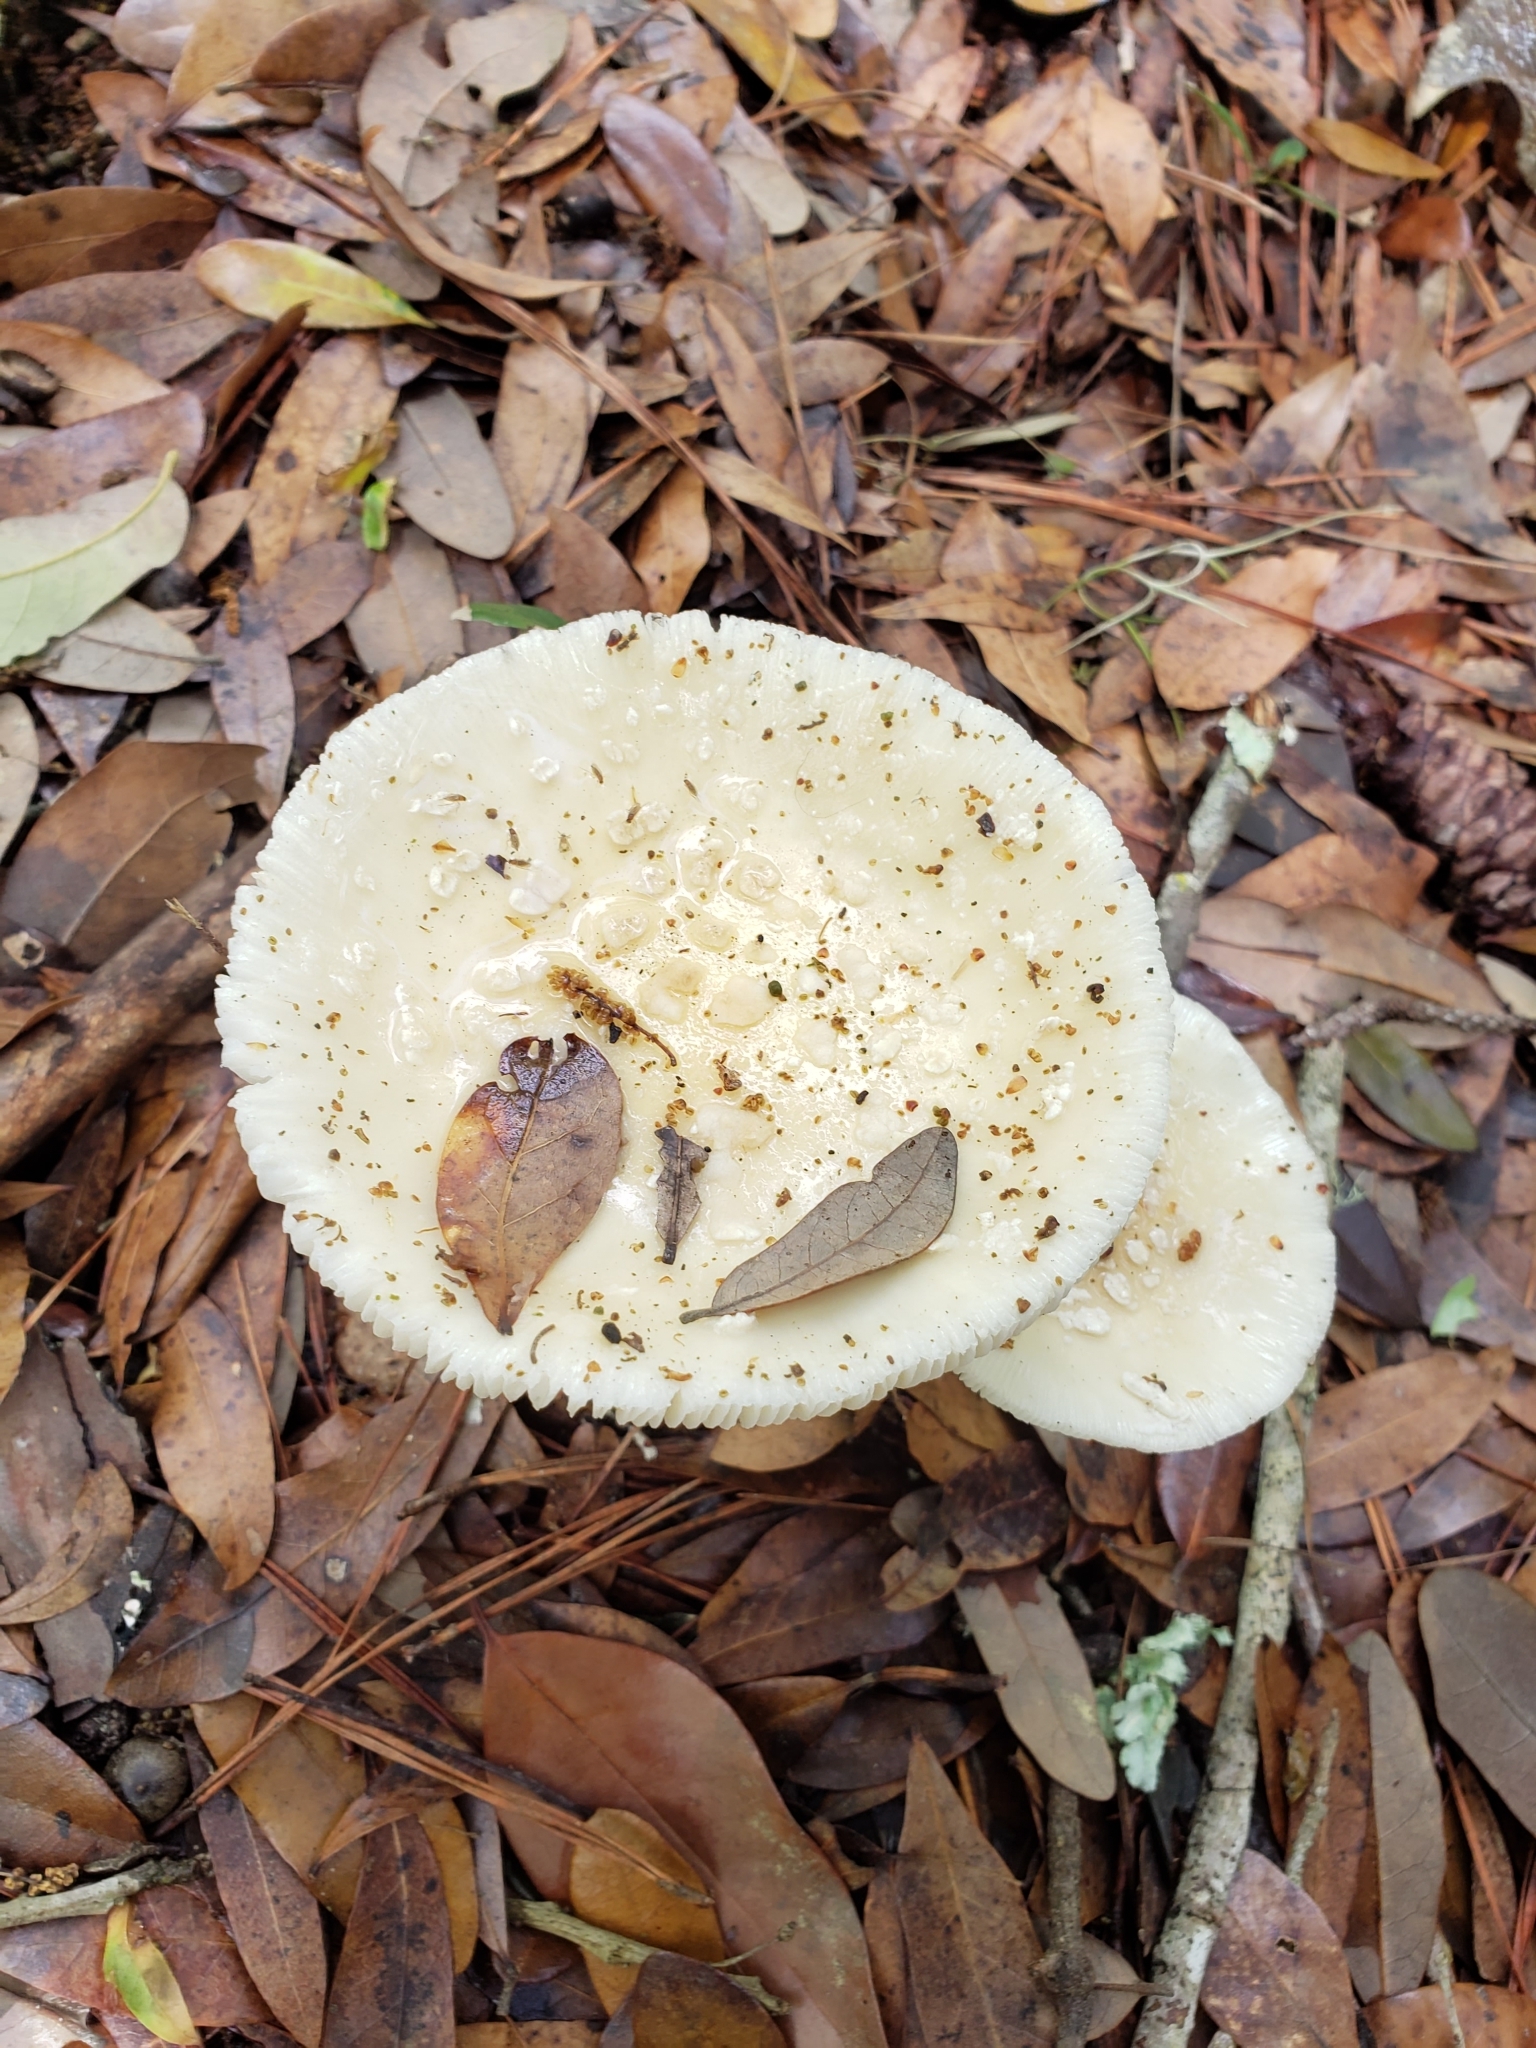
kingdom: Fungi
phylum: Basidiomycota
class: Agaricomycetes
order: Agaricales
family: Amanitaceae
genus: Amanita
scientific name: Amanita multisquamosa
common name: Small funnel-veil amanita
